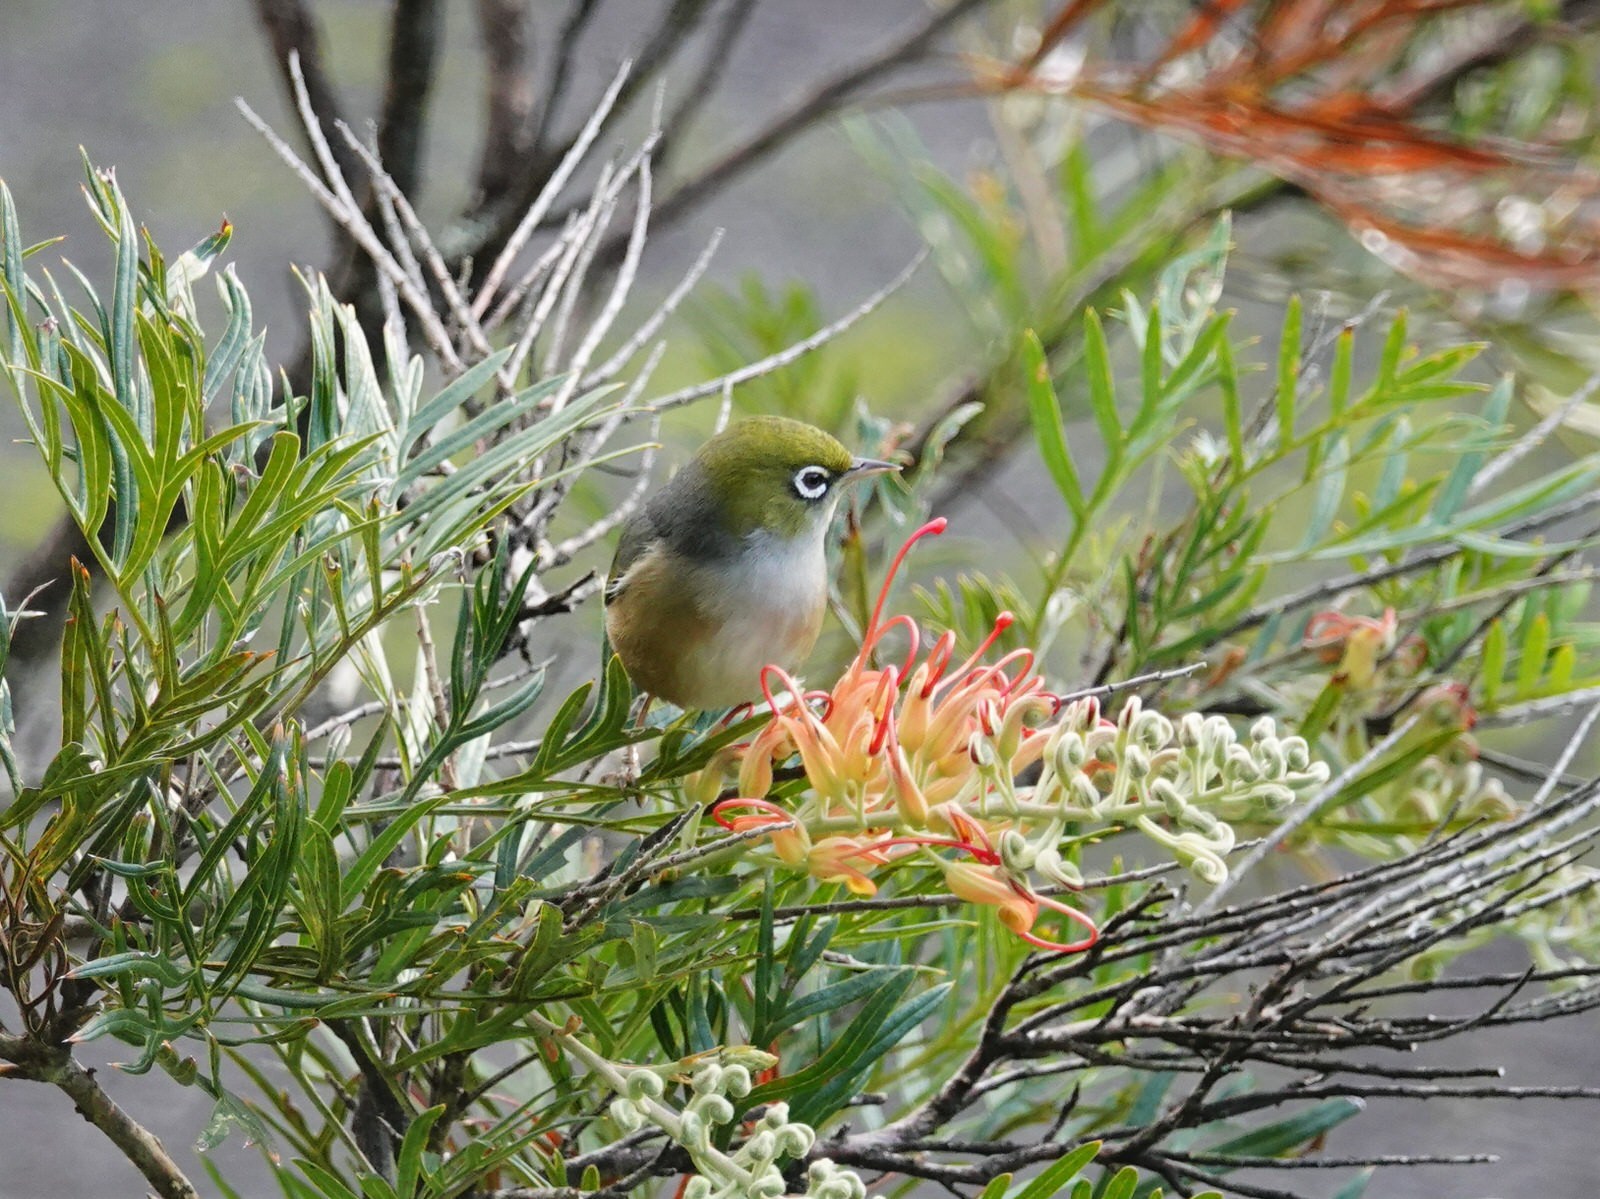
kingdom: Animalia
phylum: Chordata
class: Aves
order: Passeriformes
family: Zosteropidae
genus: Zosterops
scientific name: Zosterops lateralis
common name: Silvereye
